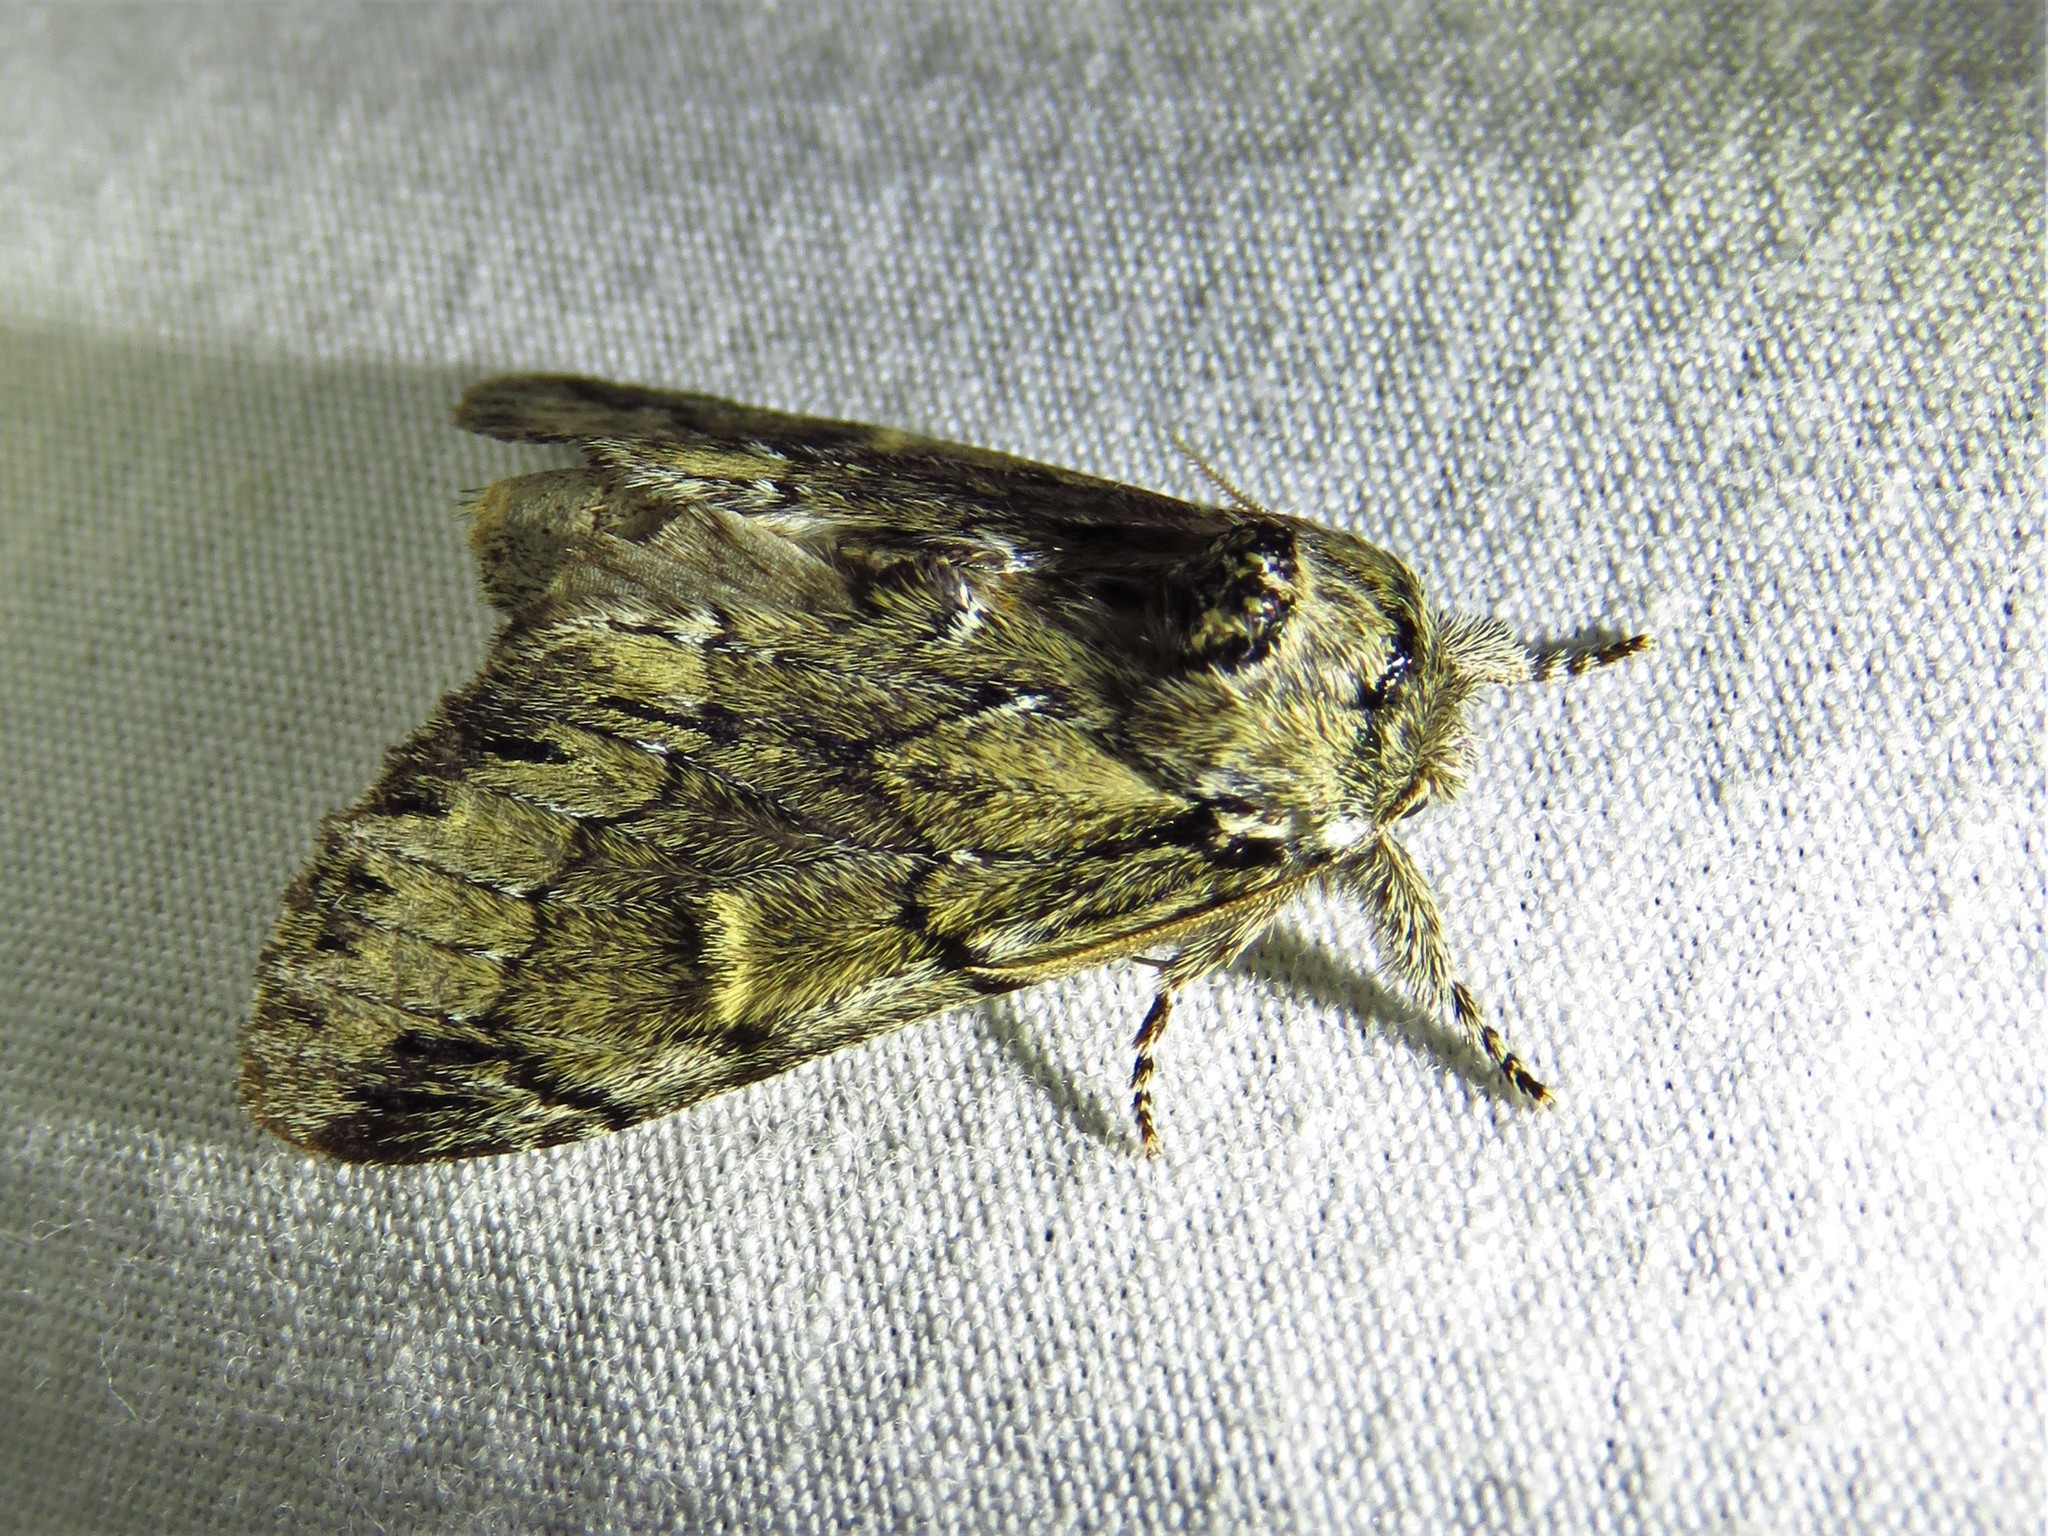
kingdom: Animalia
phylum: Arthropoda
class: Insecta
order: Lepidoptera
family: Notodontidae
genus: Paraeschra
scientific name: Paraeschra georgica
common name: Georgian prominent
